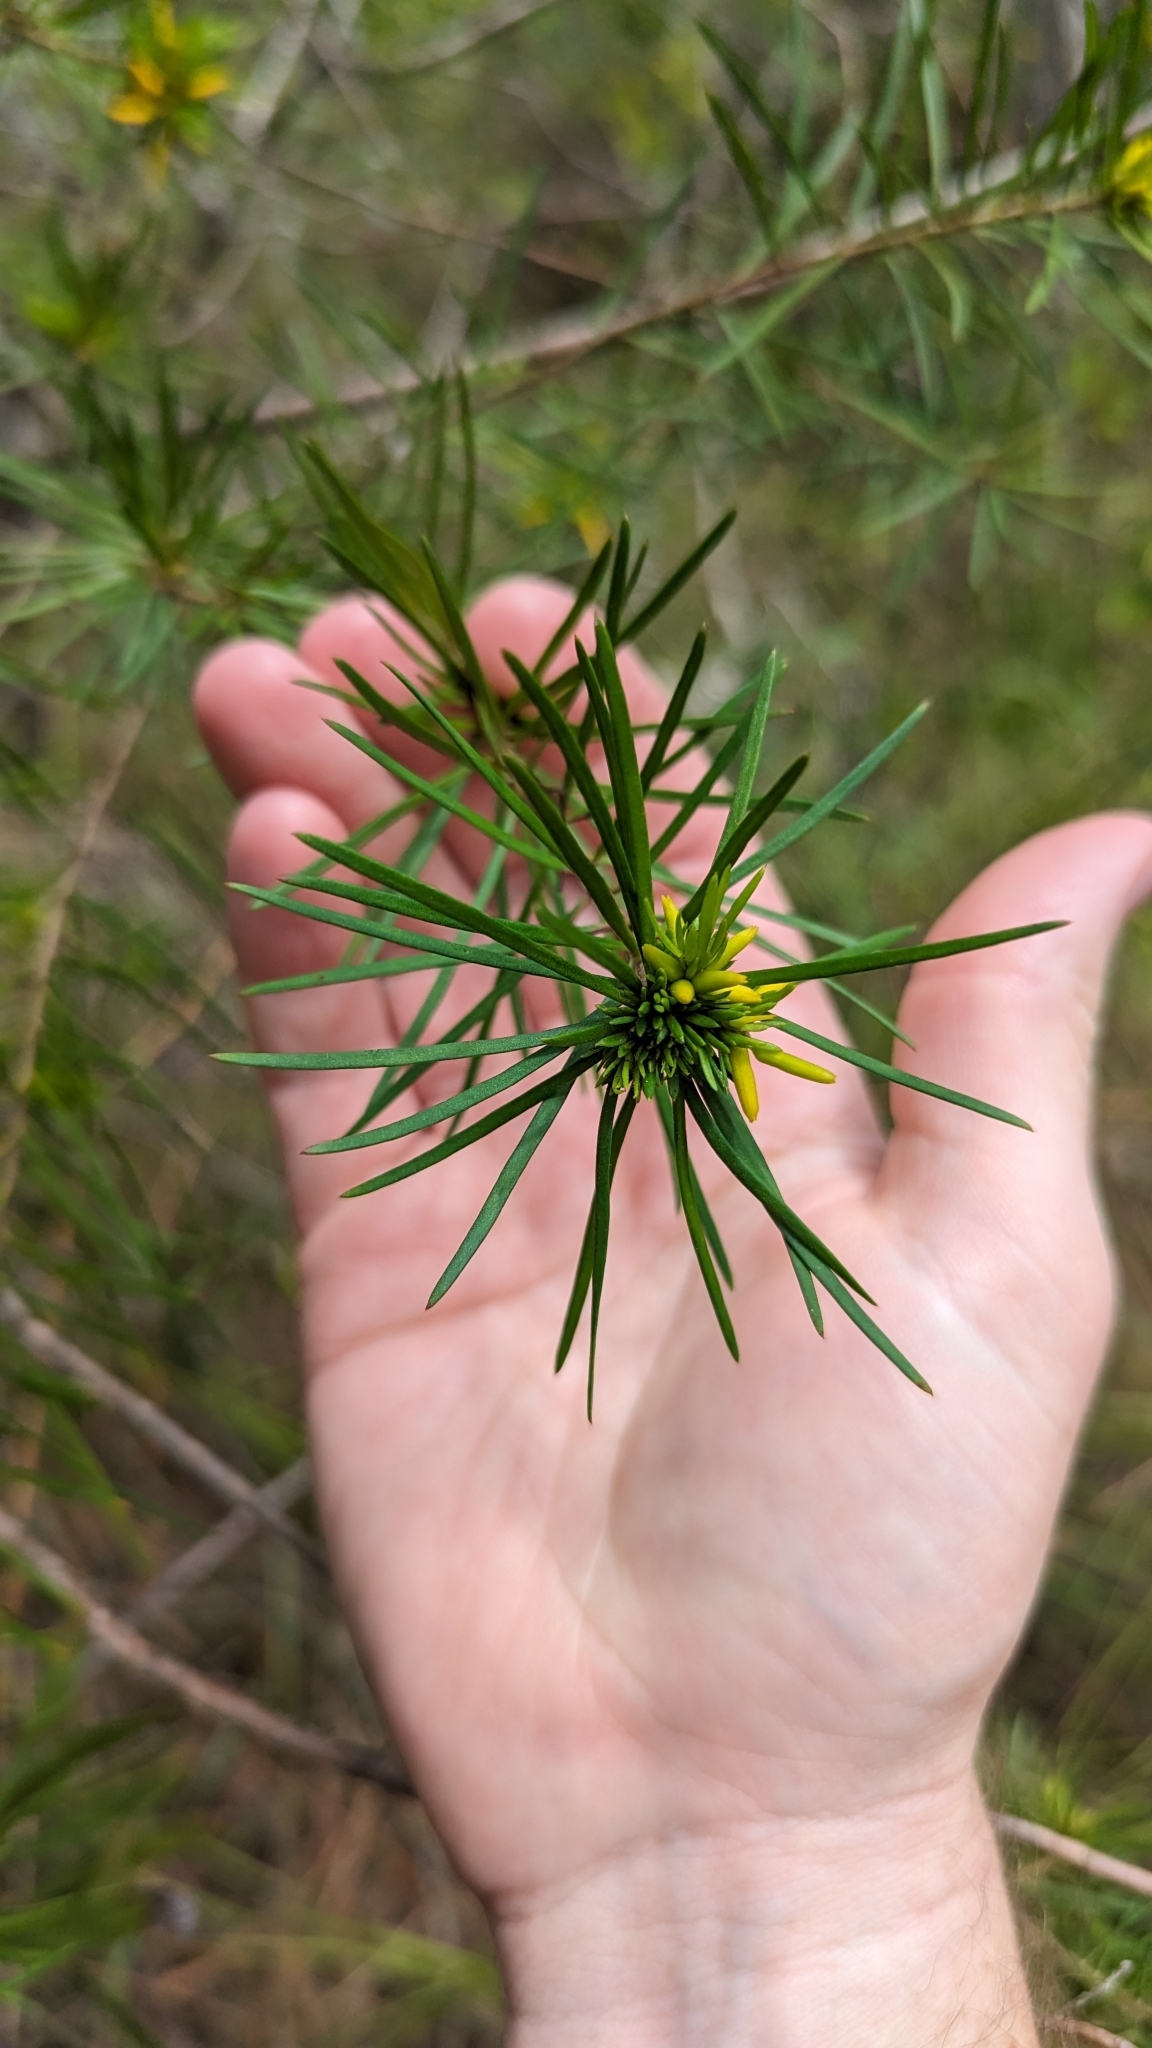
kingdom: Plantae
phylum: Tracheophyta
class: Magnoliopsida
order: Proteales
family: Proteaceae
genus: Persoonia
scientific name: Persoonia virgata
